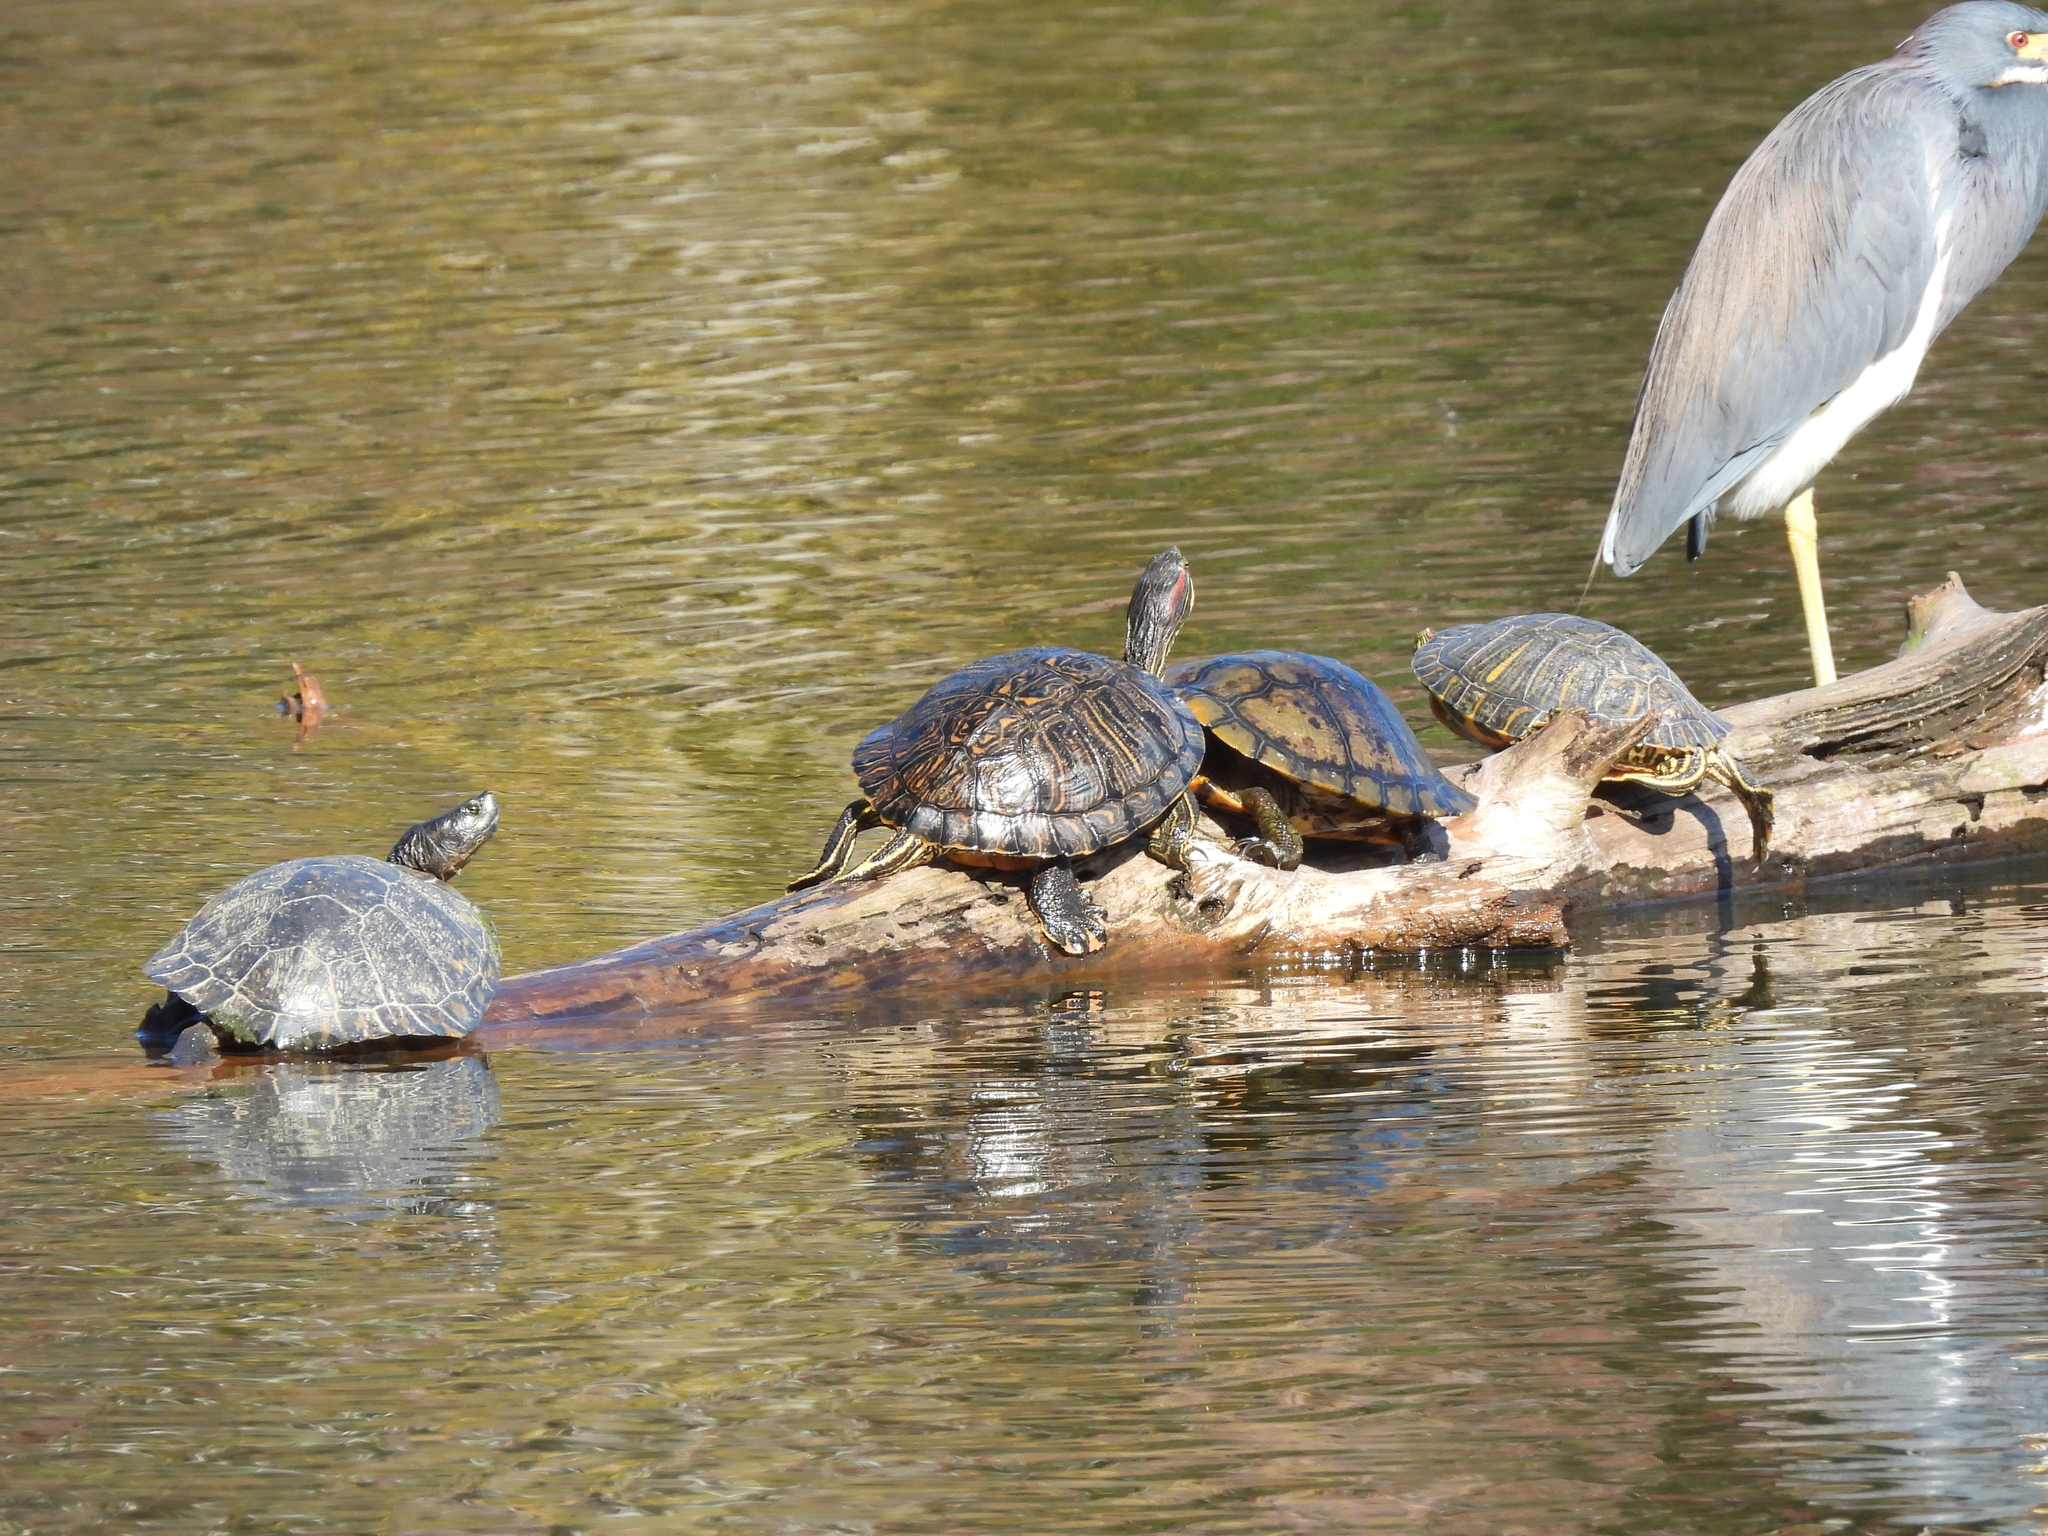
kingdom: Animalia
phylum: Chordata
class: Testudines
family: Emydidae
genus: Trachemys
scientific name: Trachemys scripta
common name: Slider
